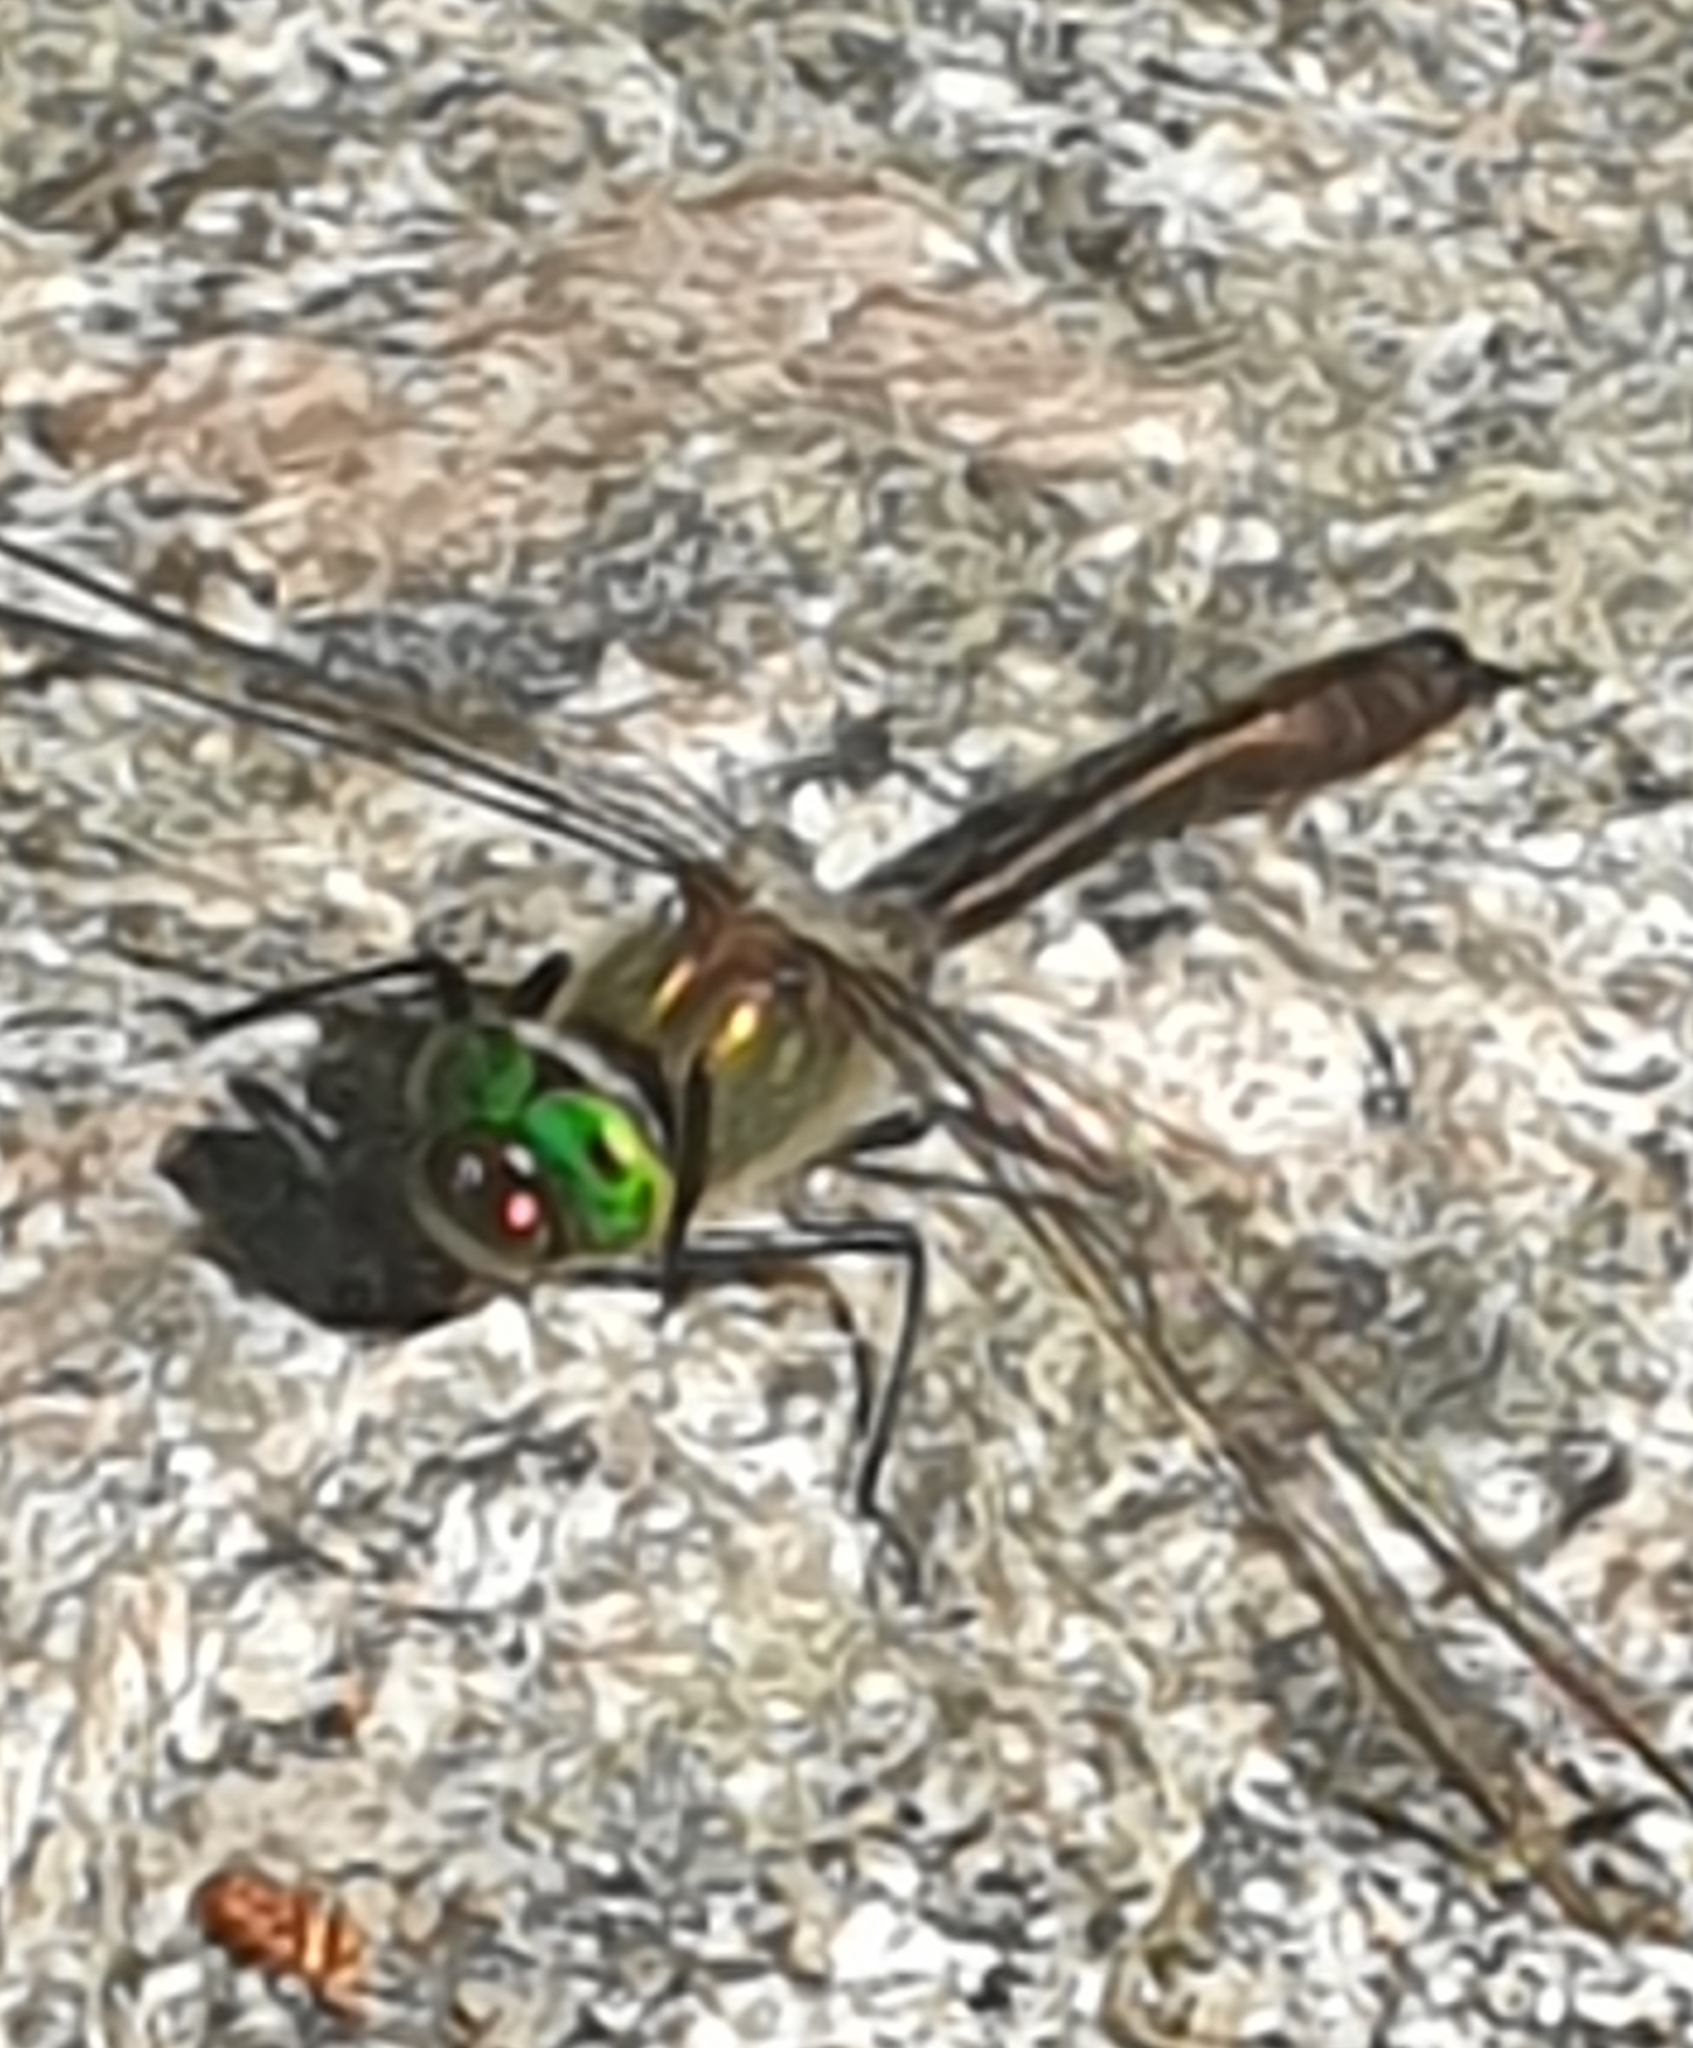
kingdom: Animalia
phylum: Arthropoda
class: Insecta
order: Odonata
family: Corduliidae
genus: Cordulia
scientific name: Cordulia aenea
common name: Downy emerald
